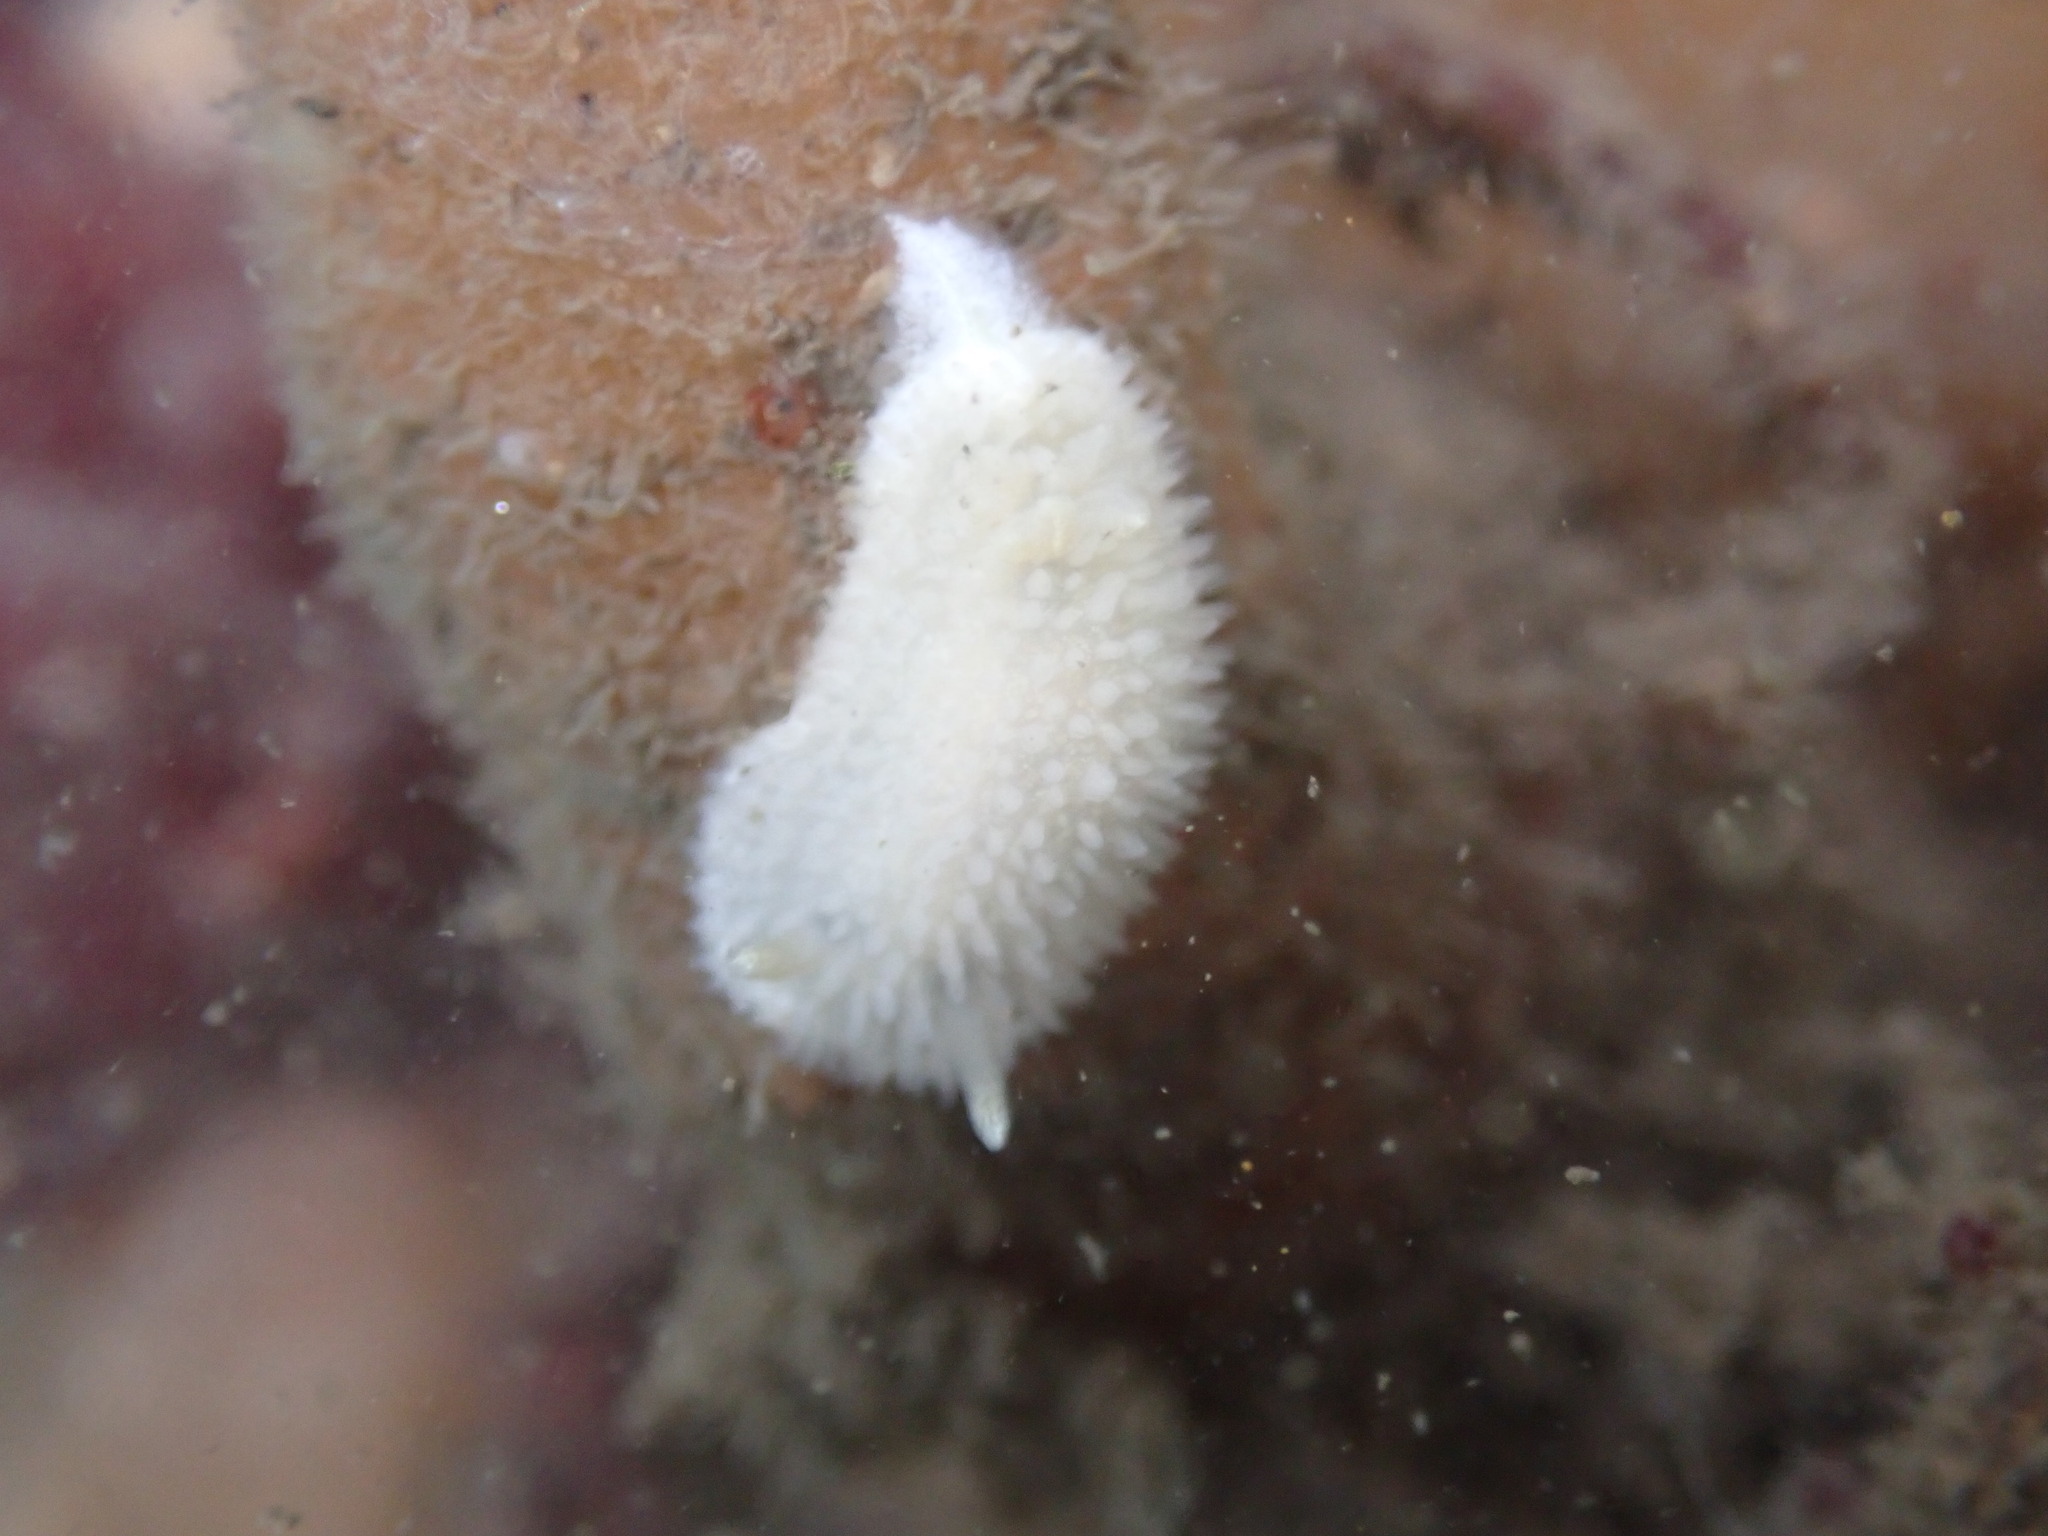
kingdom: Animalia
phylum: Mollusca
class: Gastropoda
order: Nudibranchia
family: Calycidorididae
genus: Diaphorodoris
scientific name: Diaphorodoris lirulatocauda
